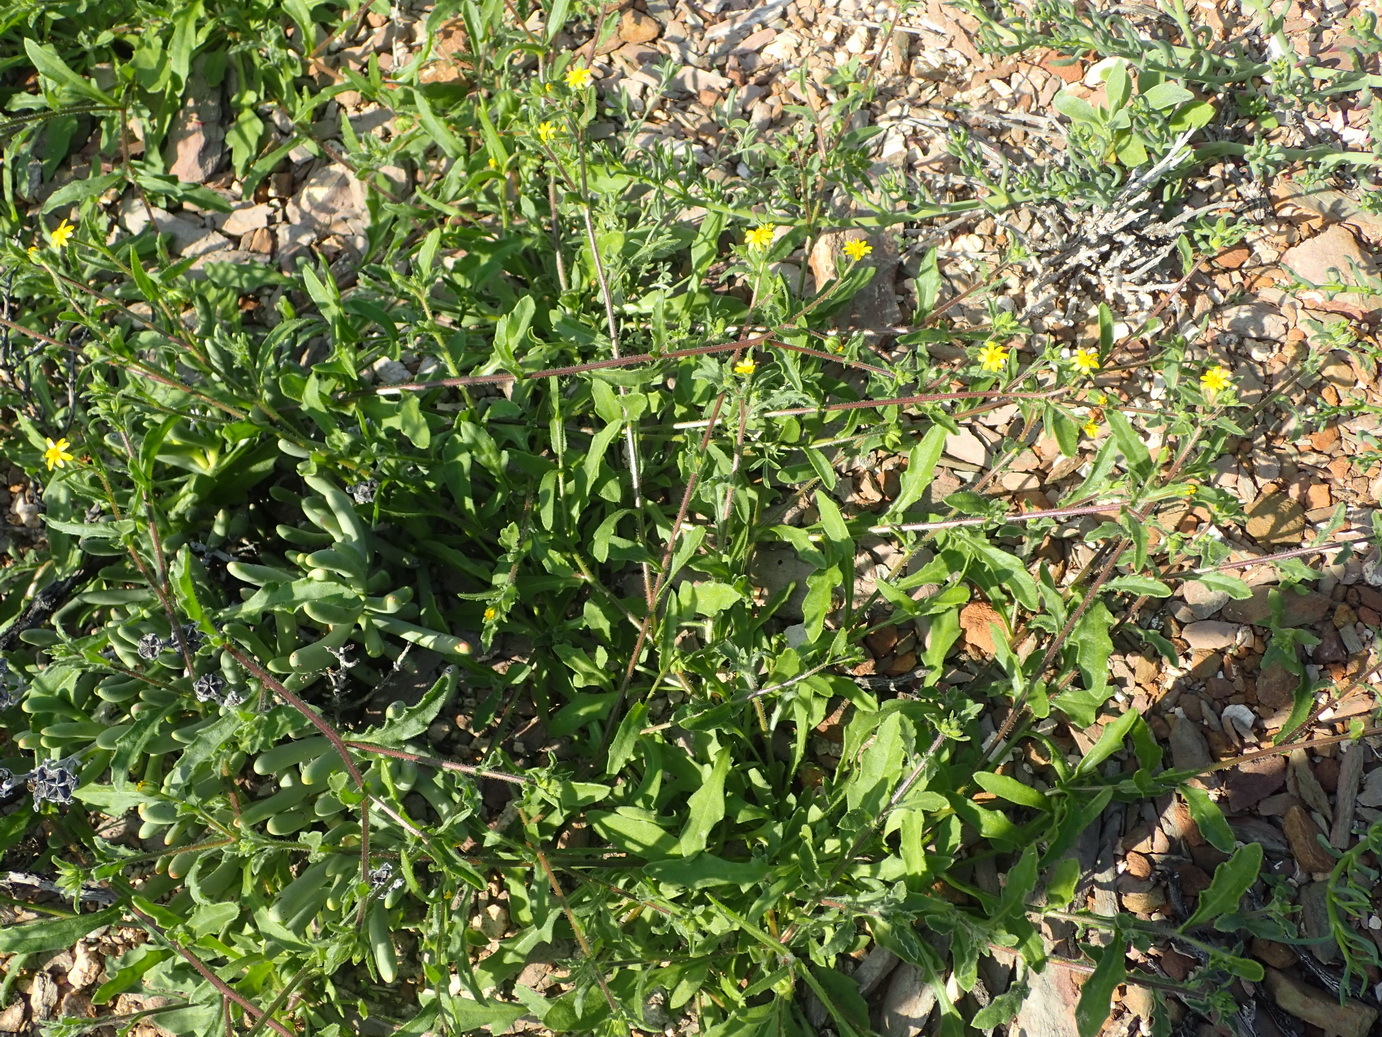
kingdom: Plantae
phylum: Tracheophyta
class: Magnoliopsida
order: Asterales
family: Asteraceae
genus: Osteospermum
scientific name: Osteospermum calendulaceum
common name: Stinking roger
